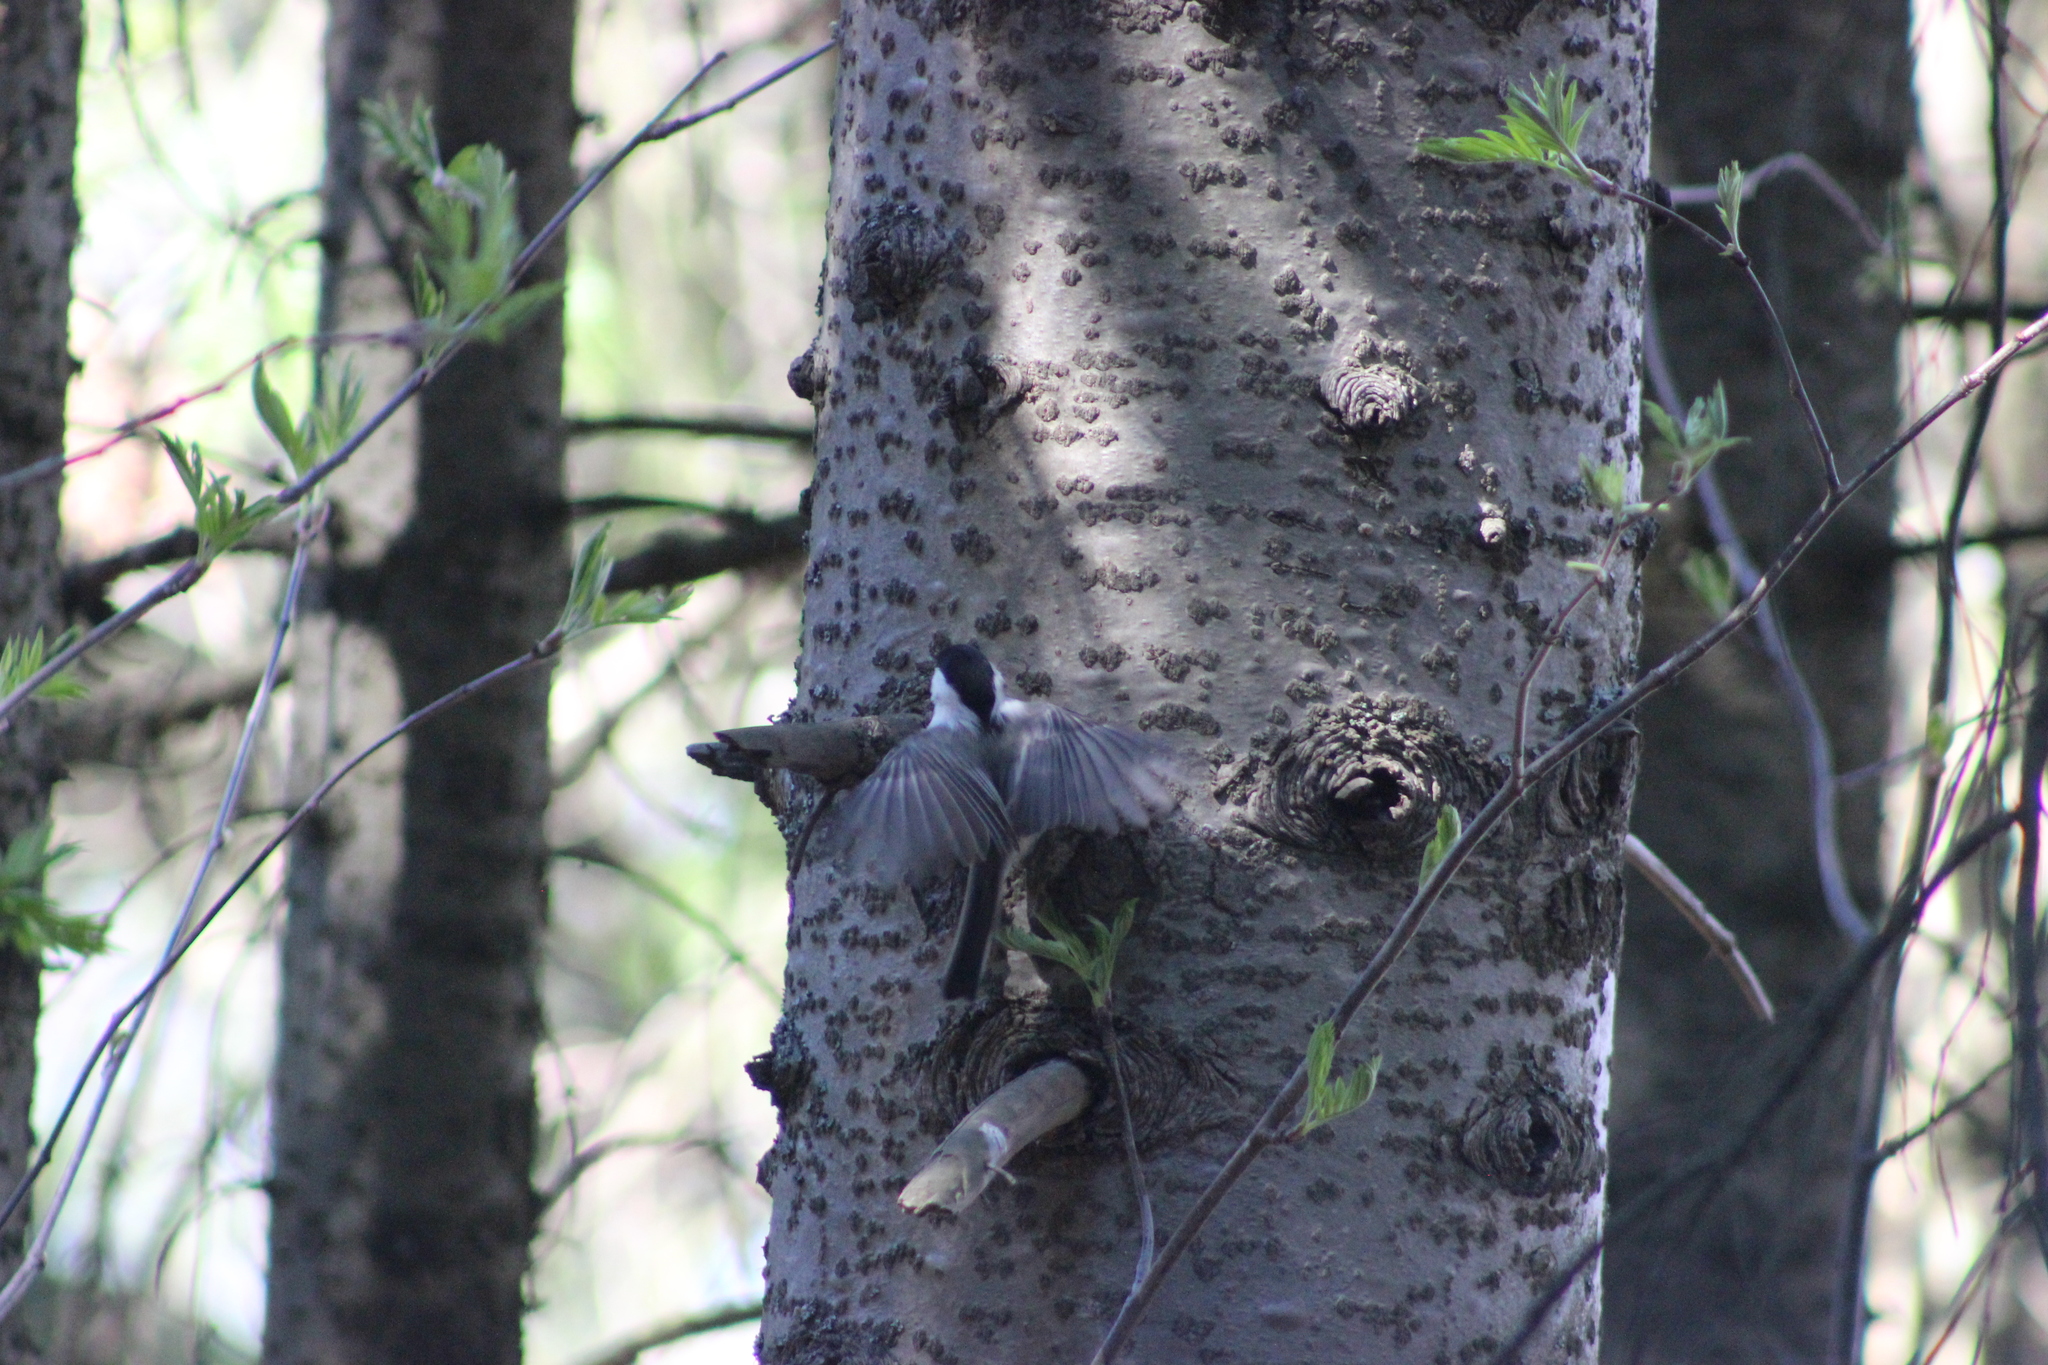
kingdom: Animalia
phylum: Chordata
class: Aves
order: Passeriformes
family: Paridae
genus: Poecile
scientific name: Poecile montanus
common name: Willow tit
